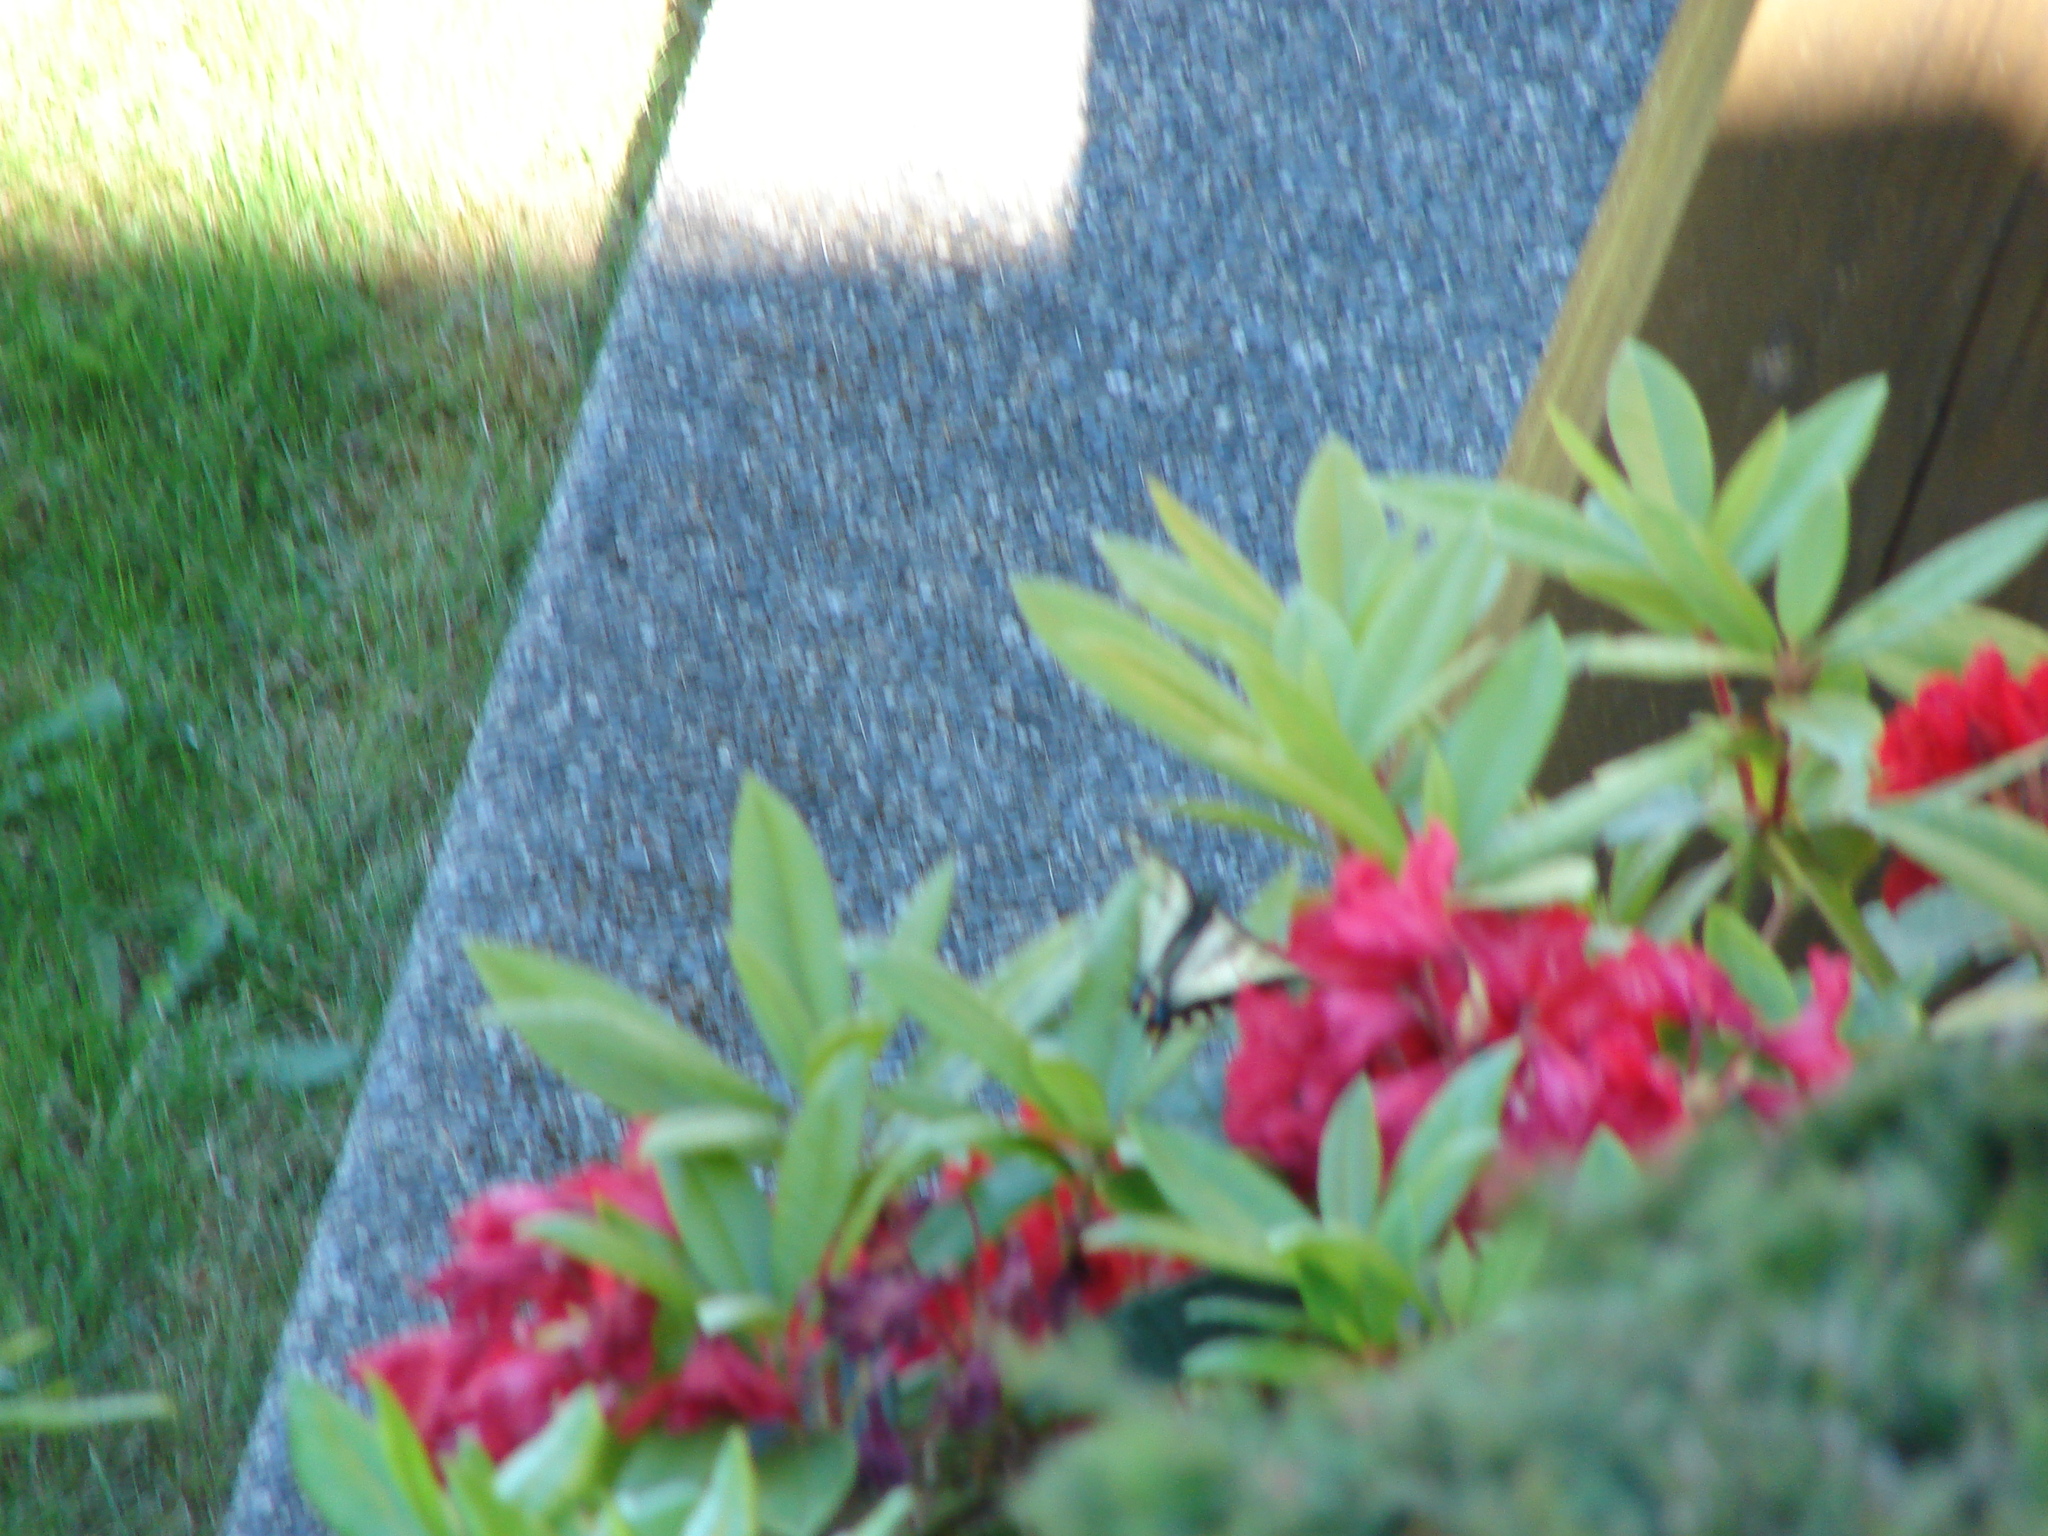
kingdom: Animalia
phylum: Arthropoda
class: Insecta
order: Lepidoptera
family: Papilionidae
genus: Papilio
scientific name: Papilio rutulus
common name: Western tiger swallowtail
